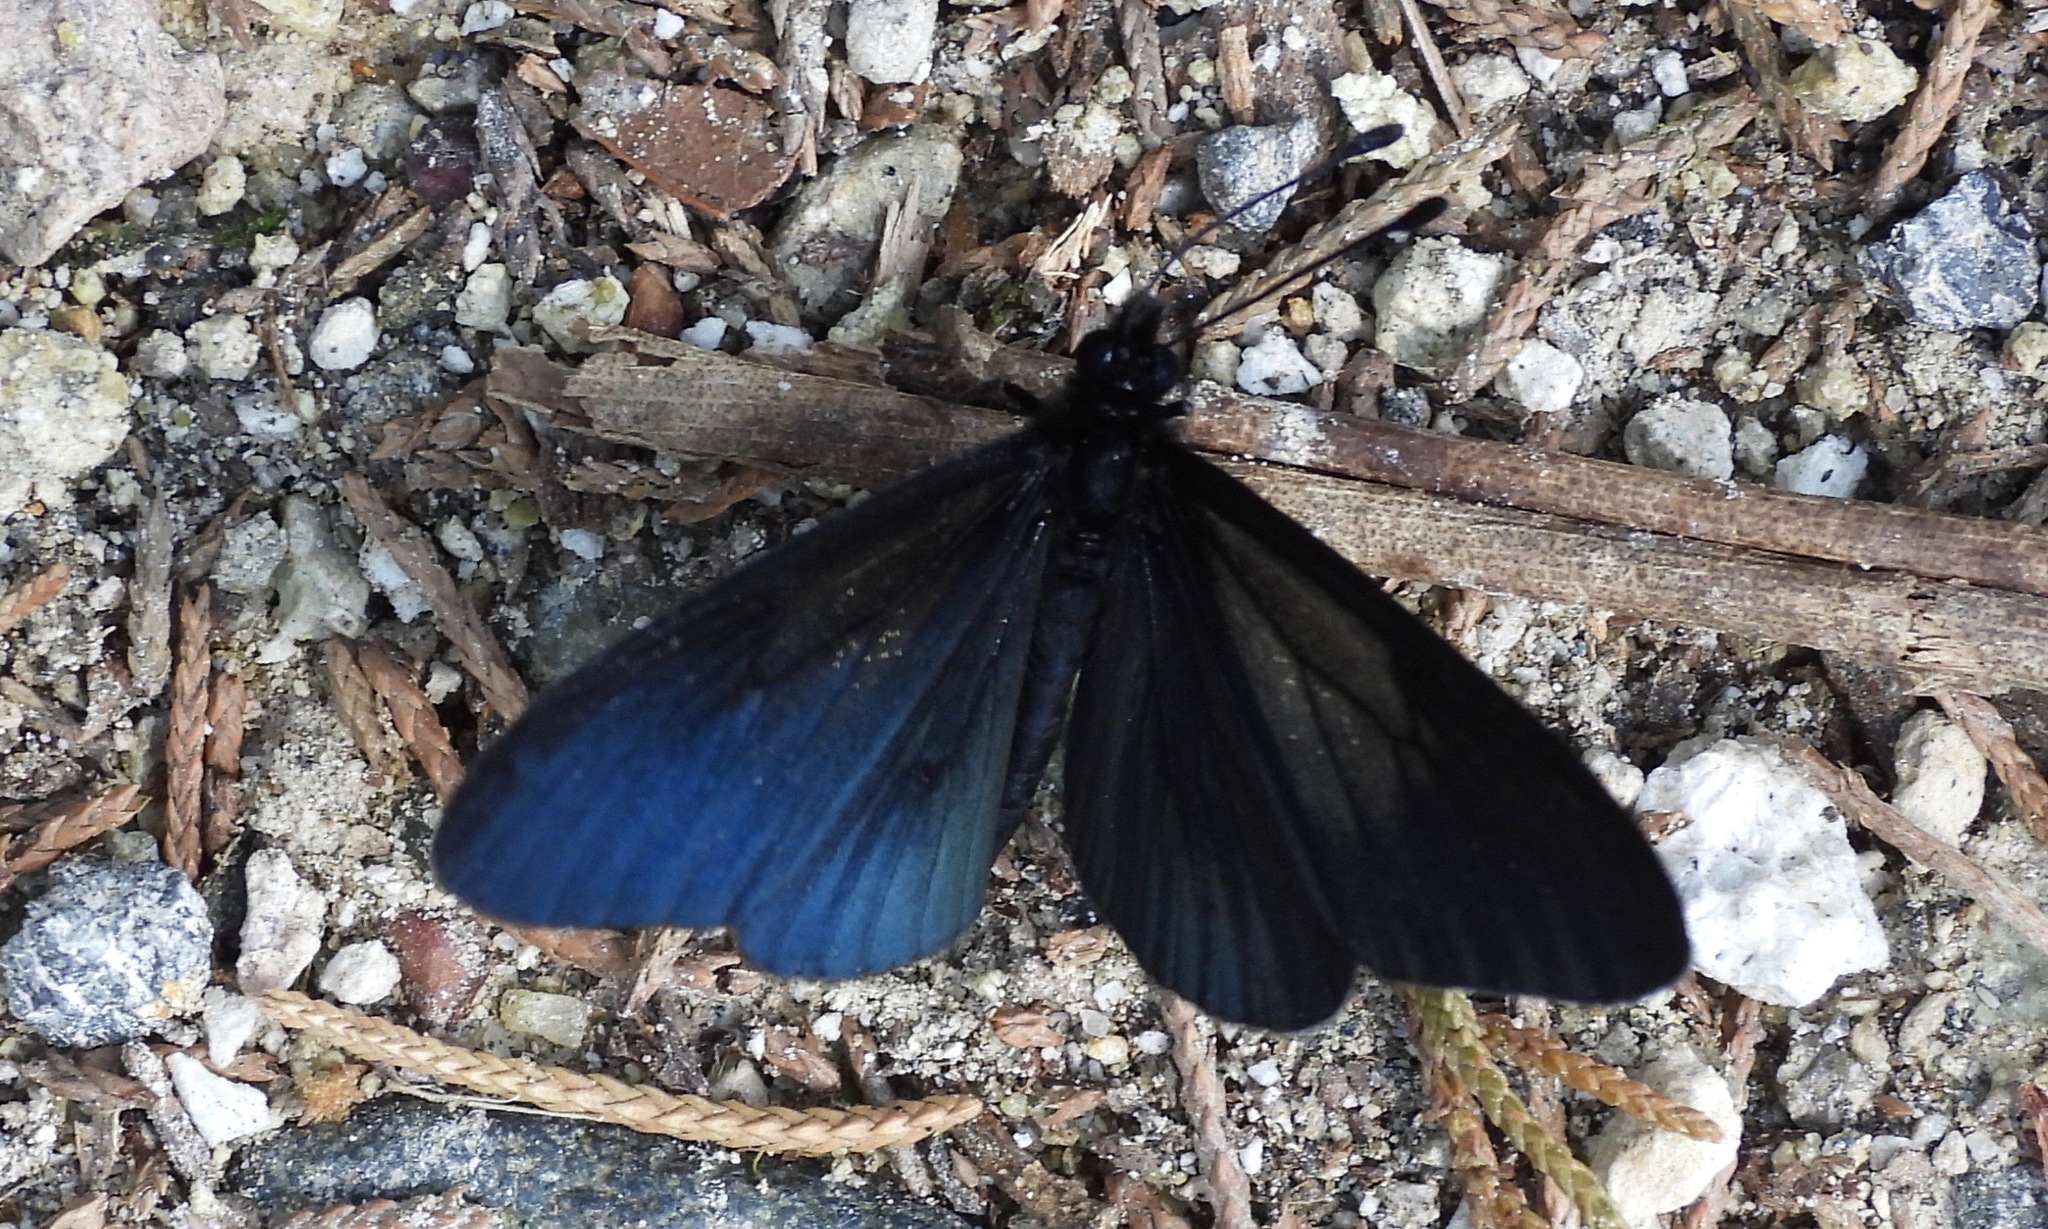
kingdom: Animalia
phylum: Arthropoda
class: Insecta
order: Lepidoptera
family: Nymphalidae
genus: Acraea
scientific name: Acraea Altinote ozomene
